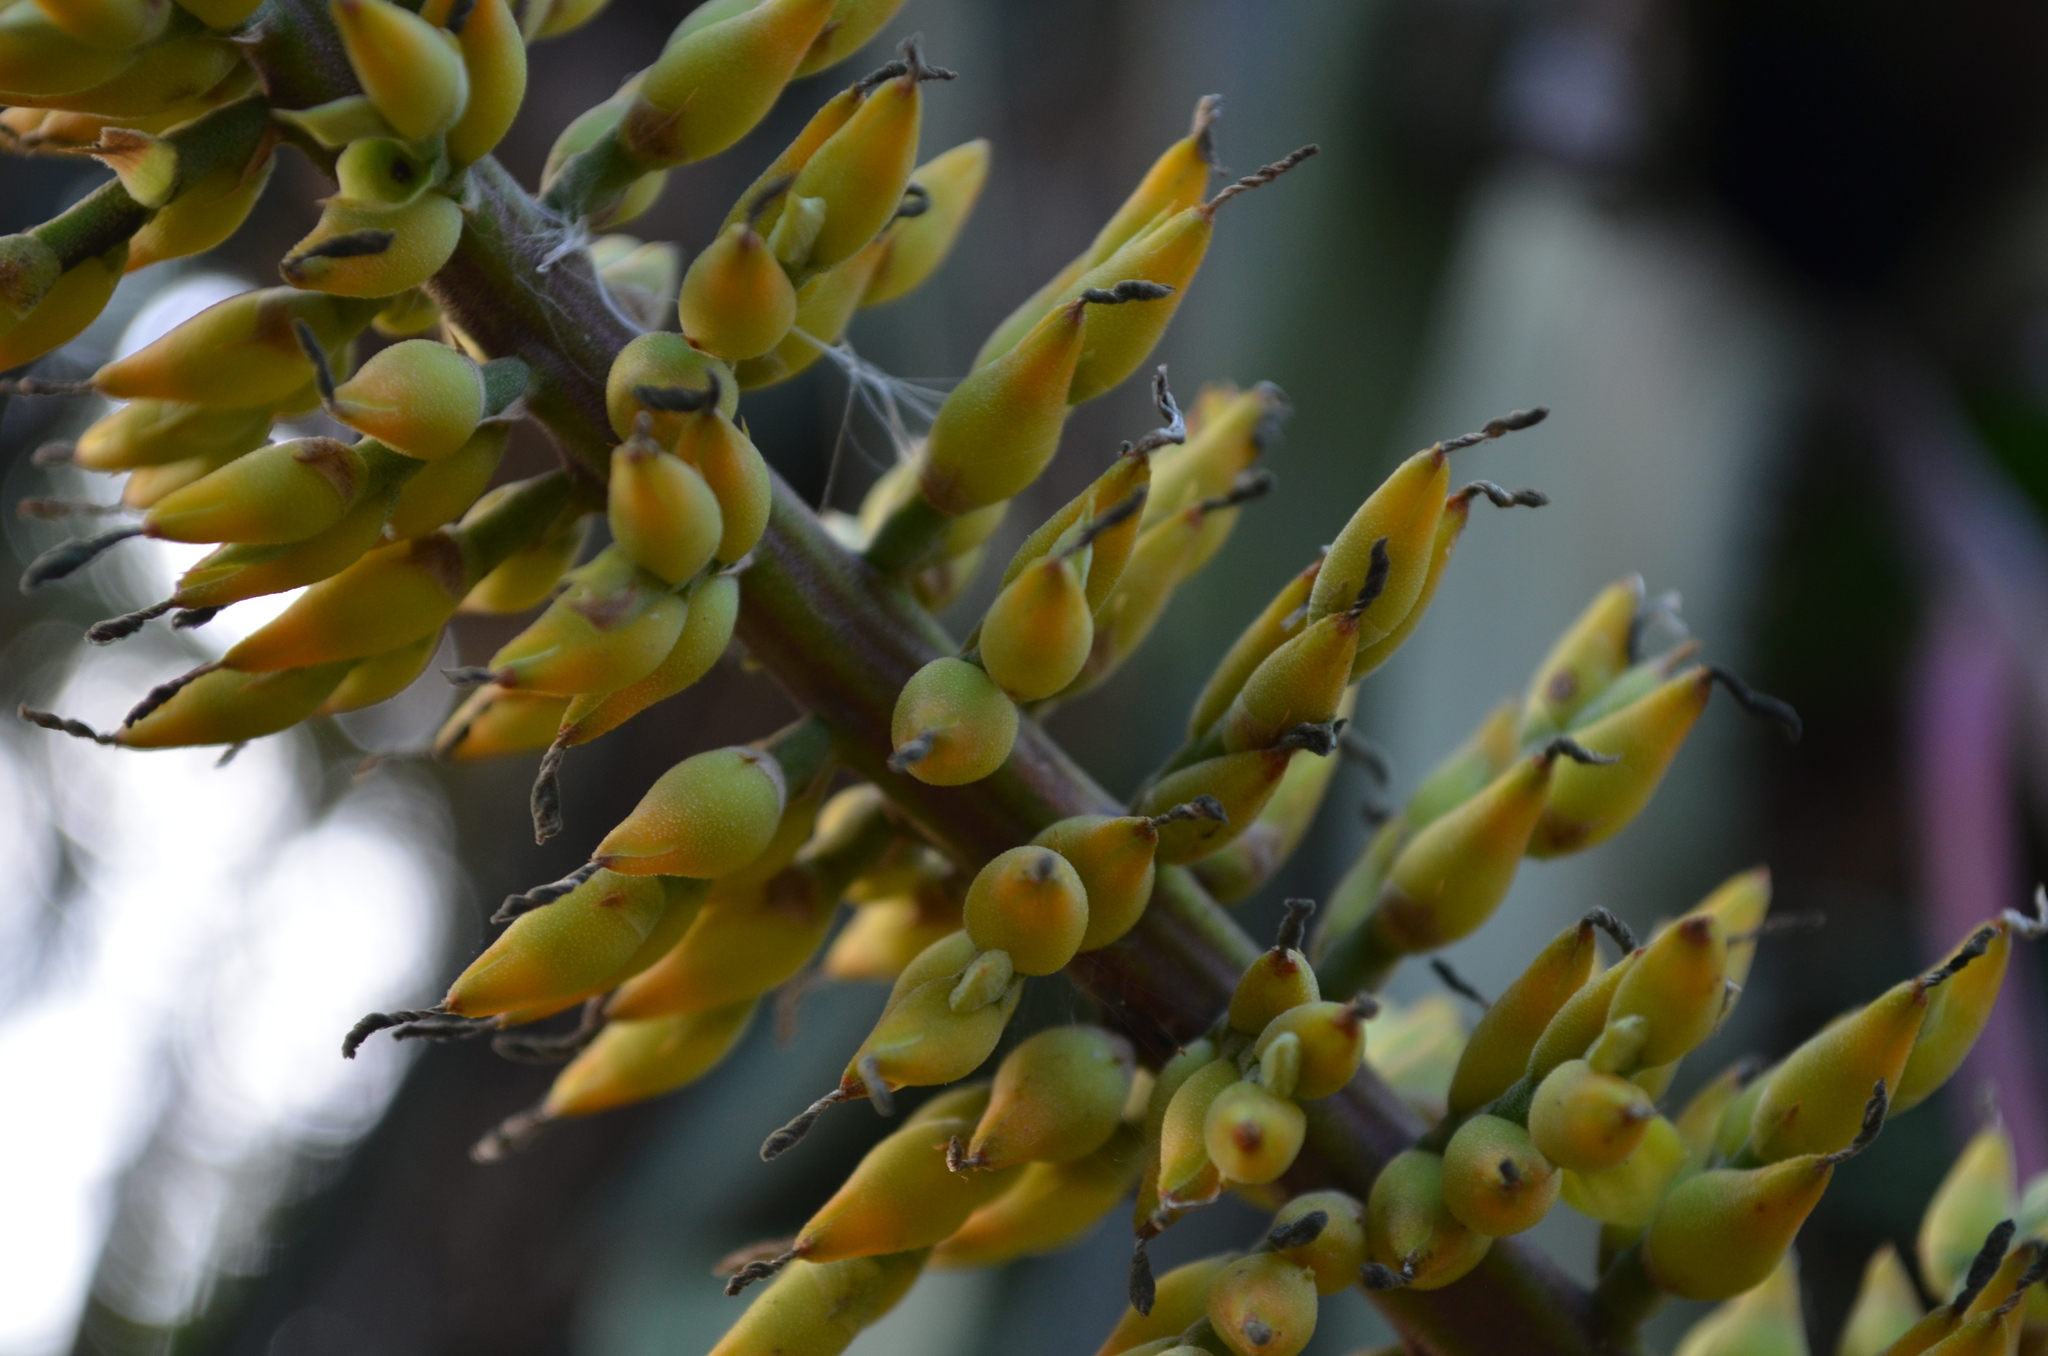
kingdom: Plantae
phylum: Tracheophyta
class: Liliopsida
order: Poales
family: Bromeliaceae
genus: Aechmea
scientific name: Aechmea tocantina
